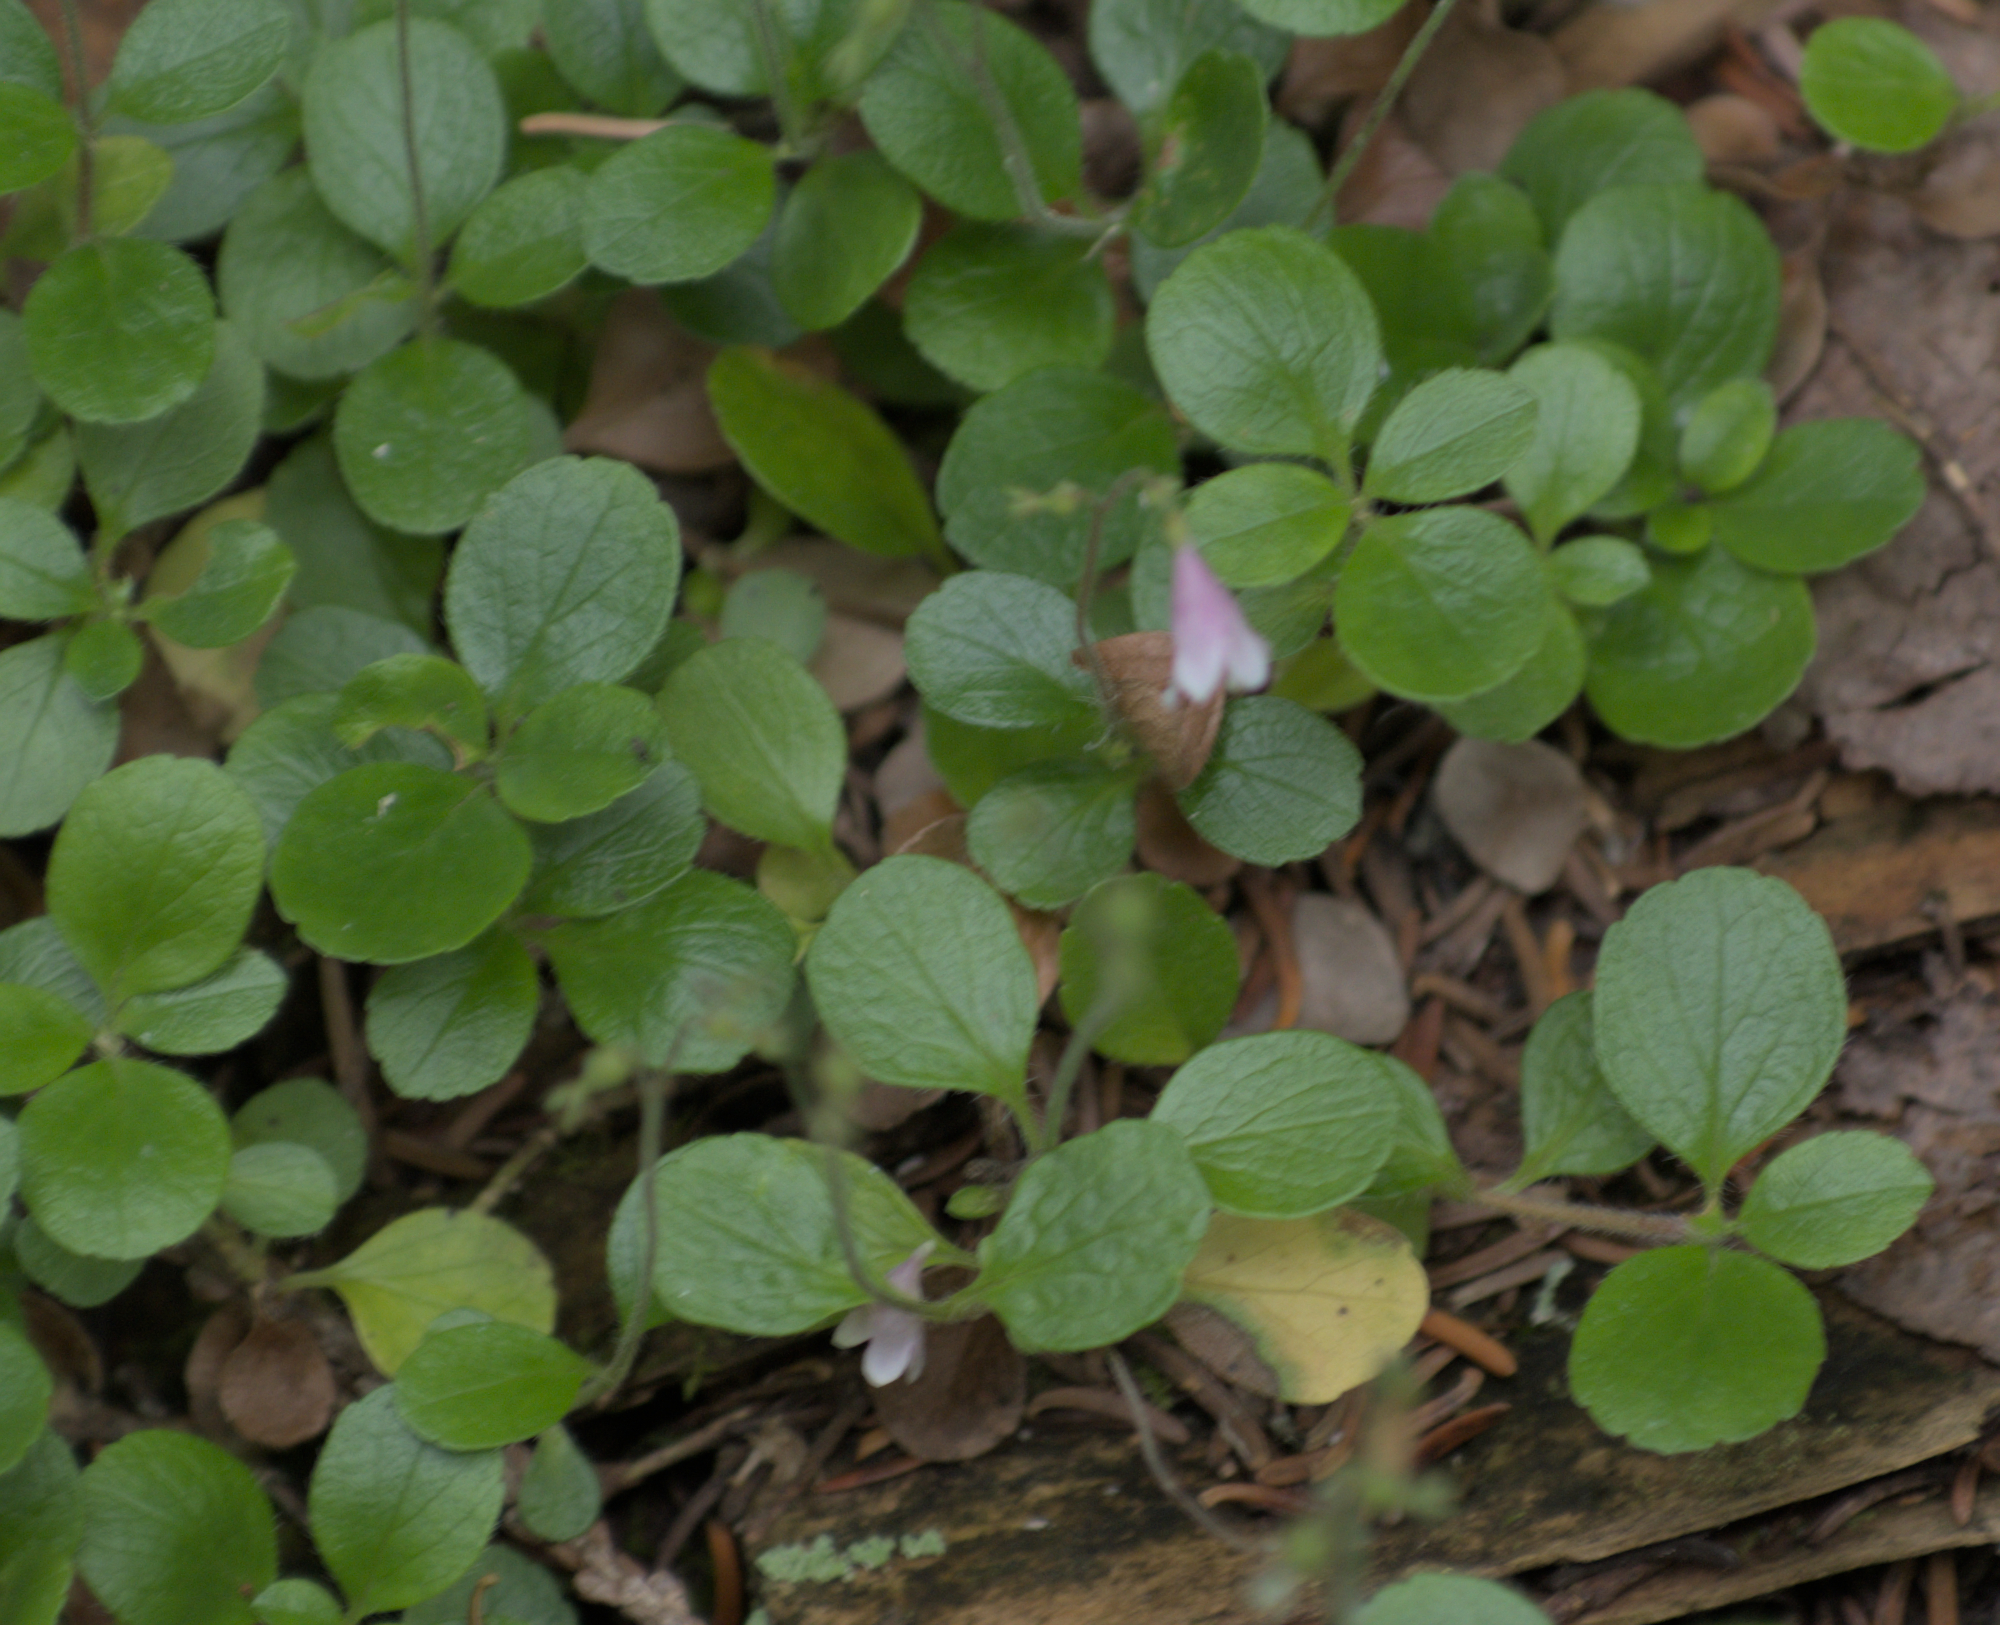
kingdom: Plantae
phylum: Tracheophyta
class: Magnoliopsida
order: Dipsacales
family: Caprifoliaceae
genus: Linnaea
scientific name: Linnaea borealis
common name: Twinflower
